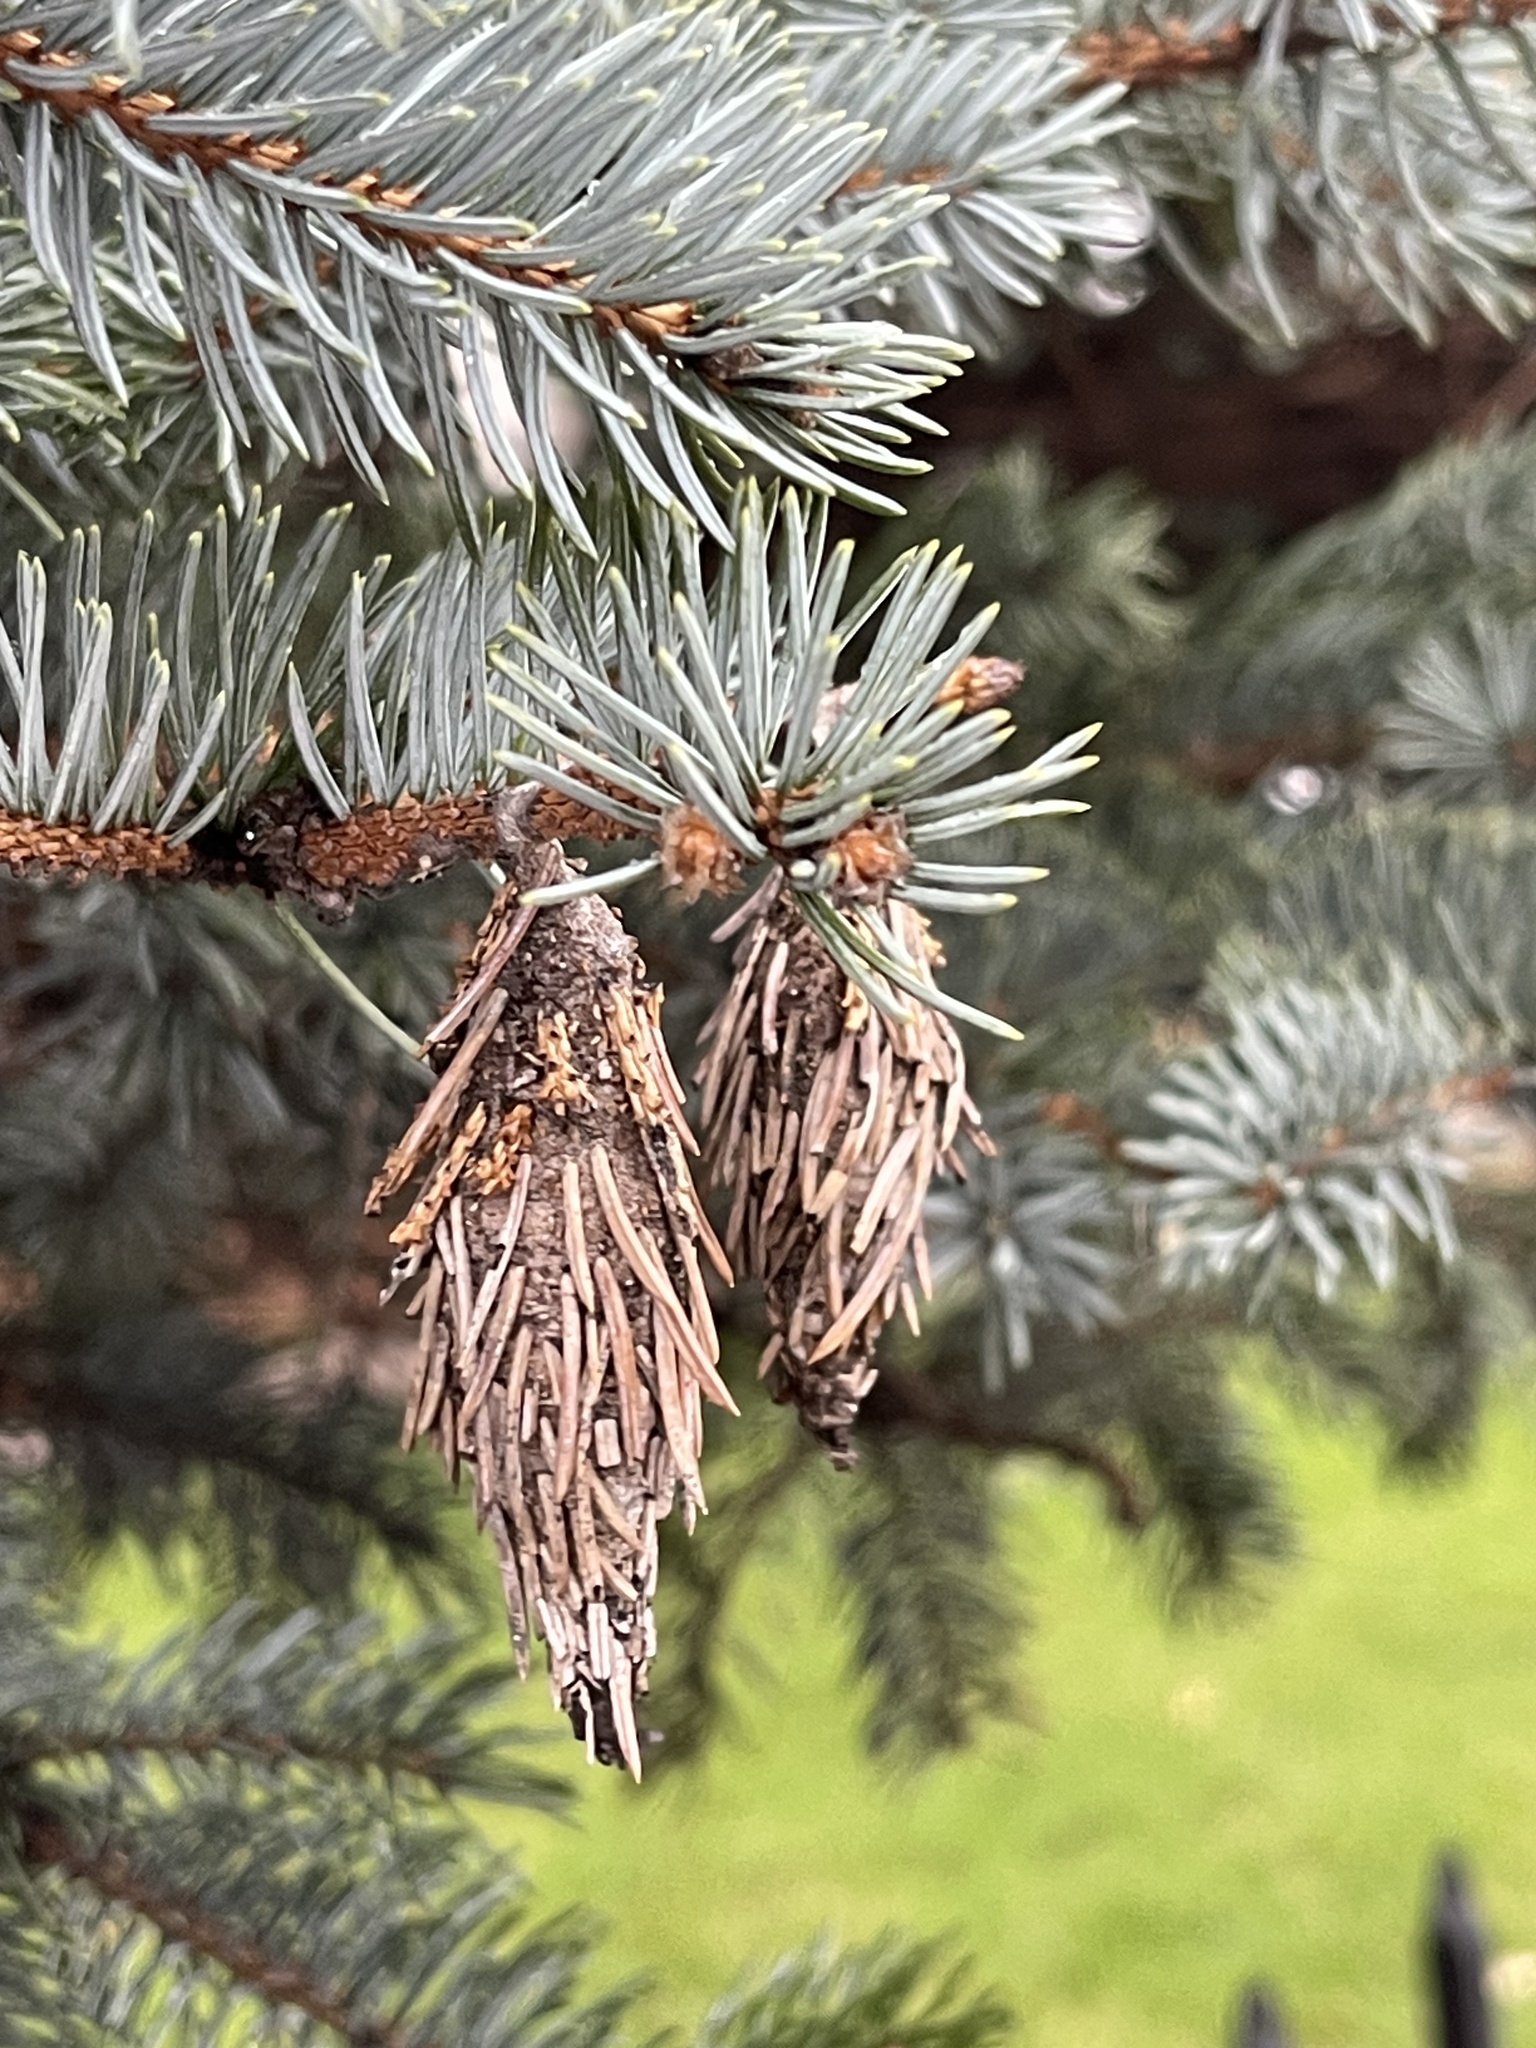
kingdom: Animalia
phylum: Arthropoda
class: Insecta
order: Lepidoptera
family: Psychidae
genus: Thyridopteryx
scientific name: Thyridopteryx ephemeraeformis
